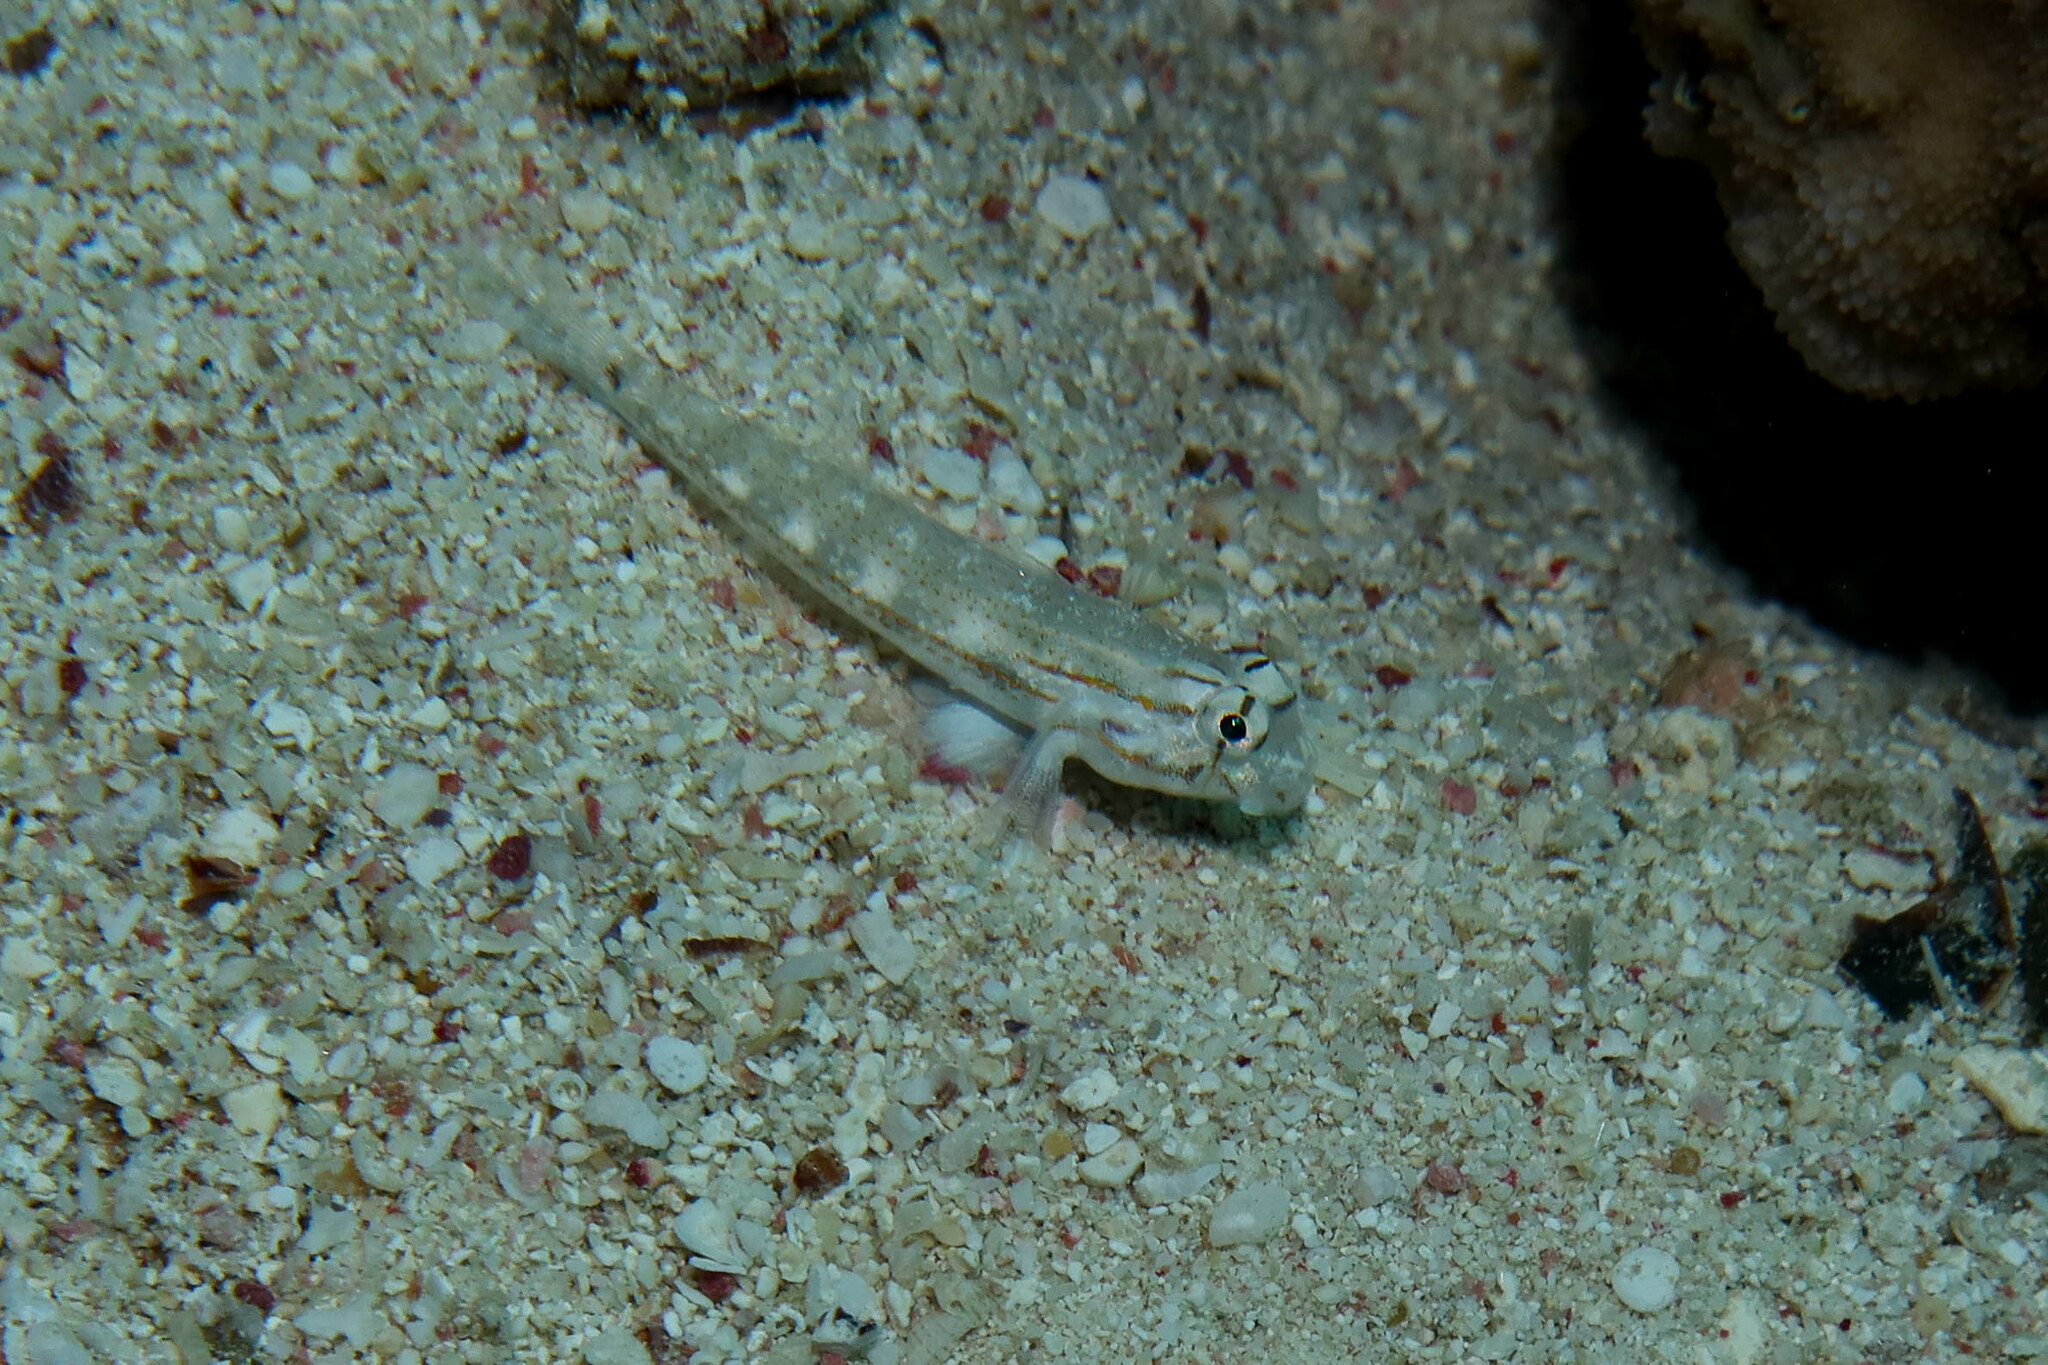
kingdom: Animalia
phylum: Chordata
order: Perciformes
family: Gobiidae
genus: Gnatholepis
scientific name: Gnatholepis caudimaculata
